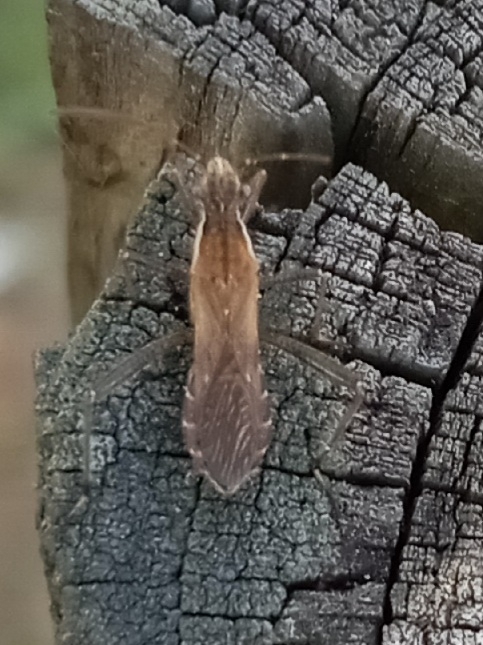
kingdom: Animalia
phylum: Arthropoda
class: Insecta
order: Hemiptera
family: Alydidae
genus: Alydus
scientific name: Alydus pilosulus
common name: Broad-headed bug
